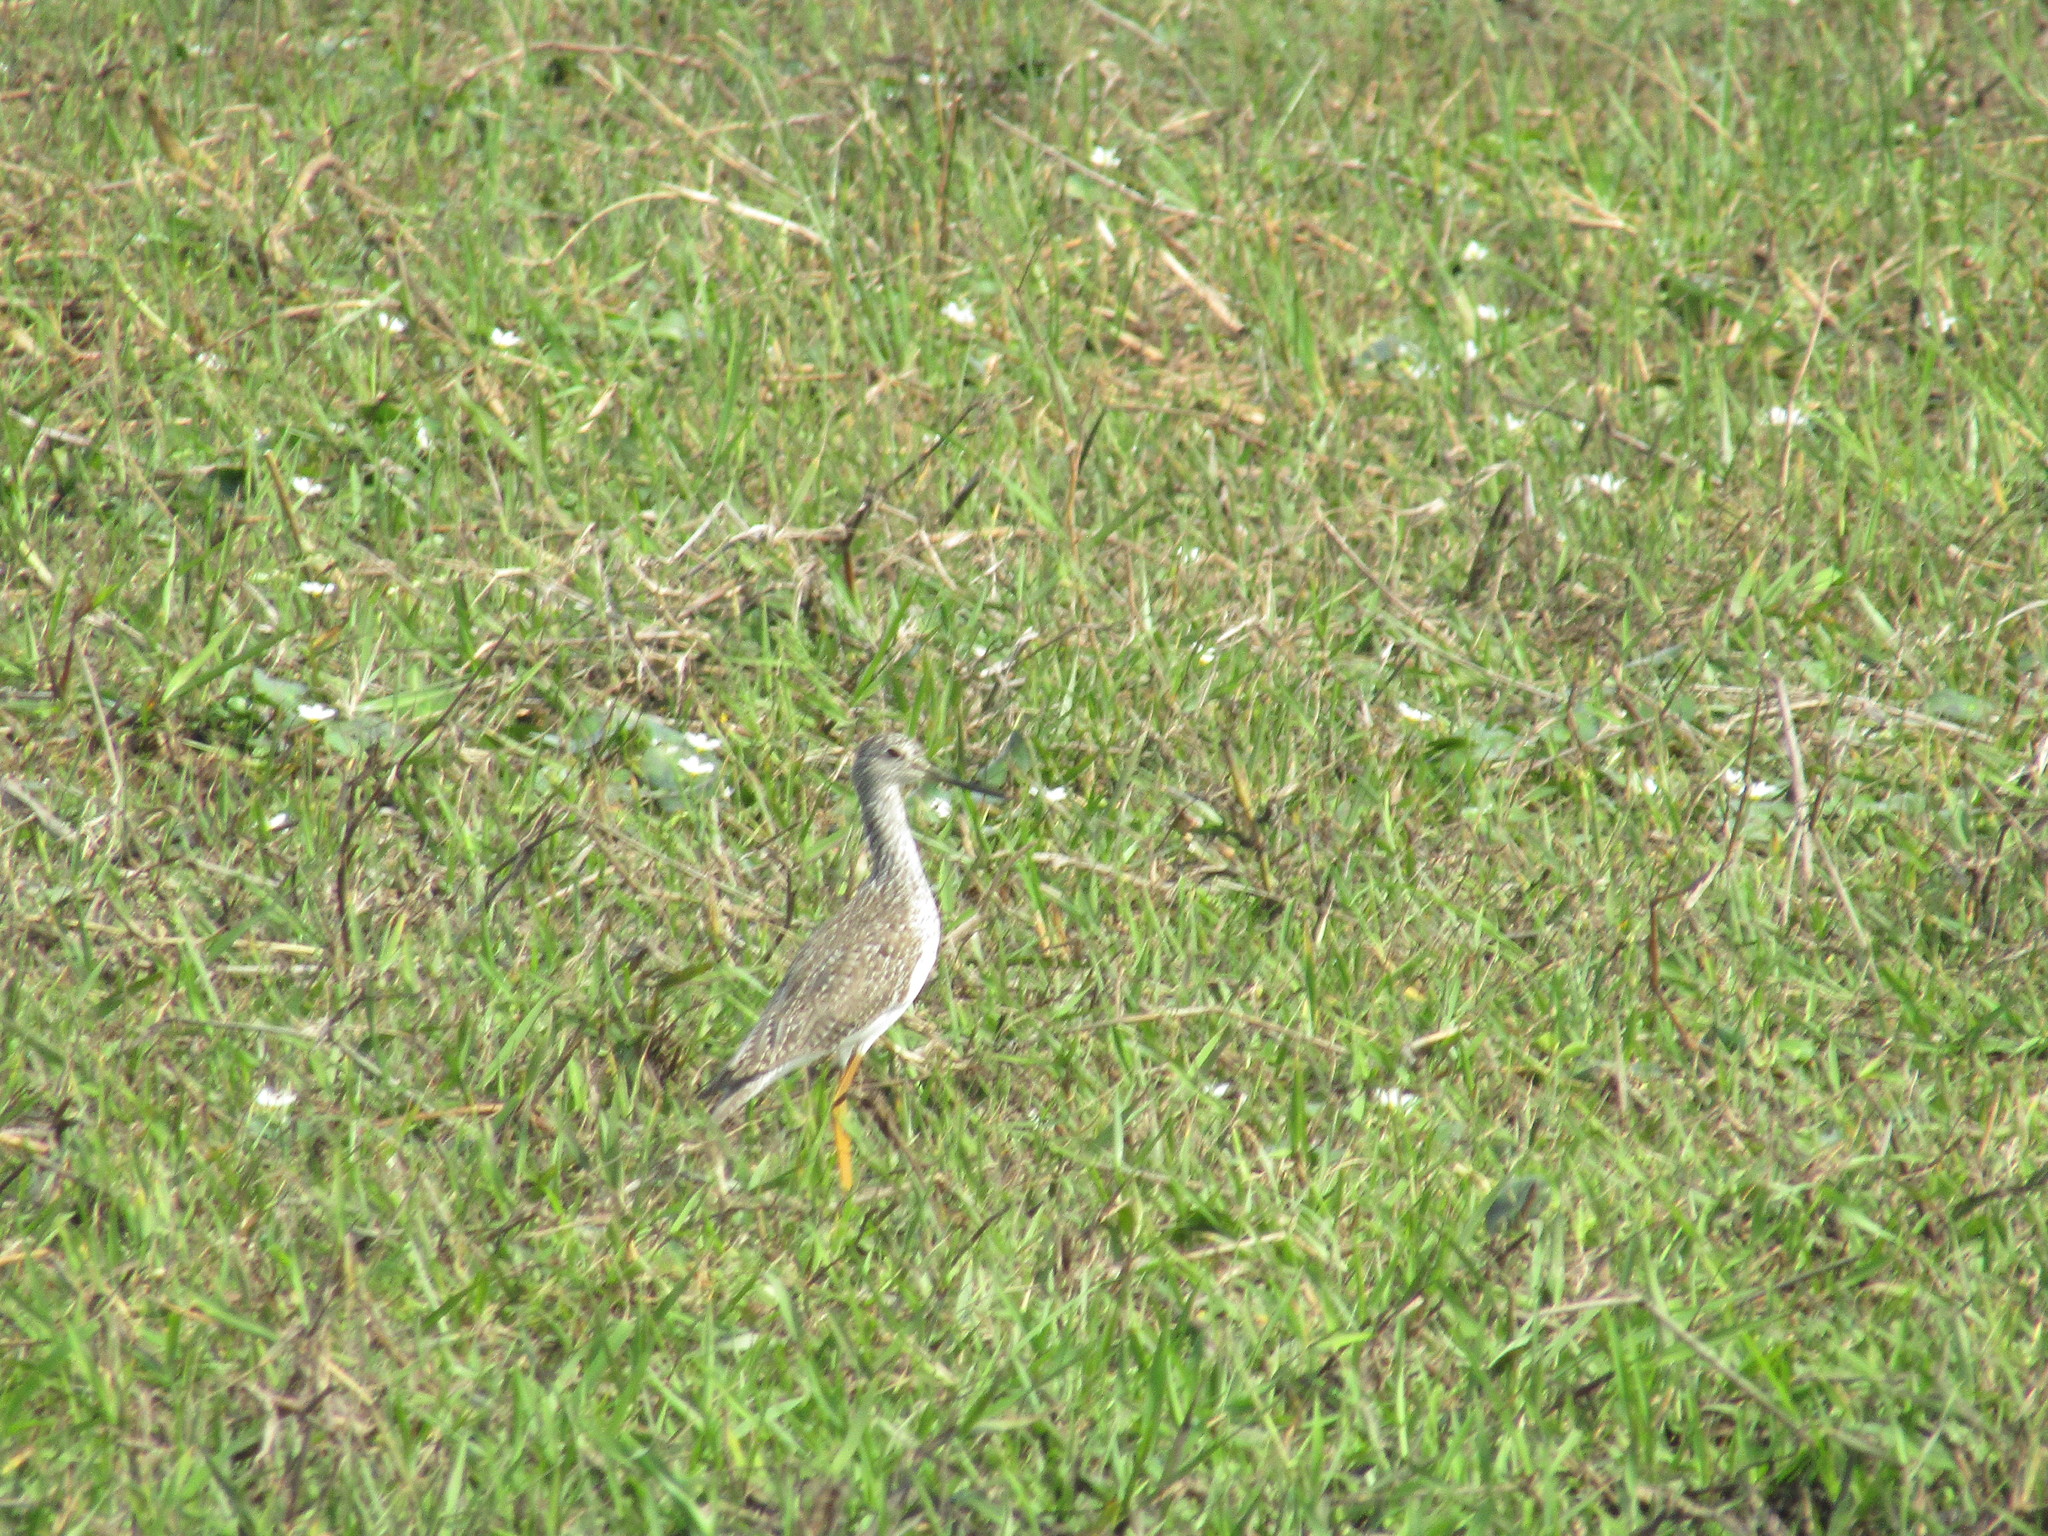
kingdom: Animalia
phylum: Chordata
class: Aves
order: Charadriiformes
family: Scolopacidae
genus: Tringa
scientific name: Tringa melanoleuca
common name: Greater yellowlegs
